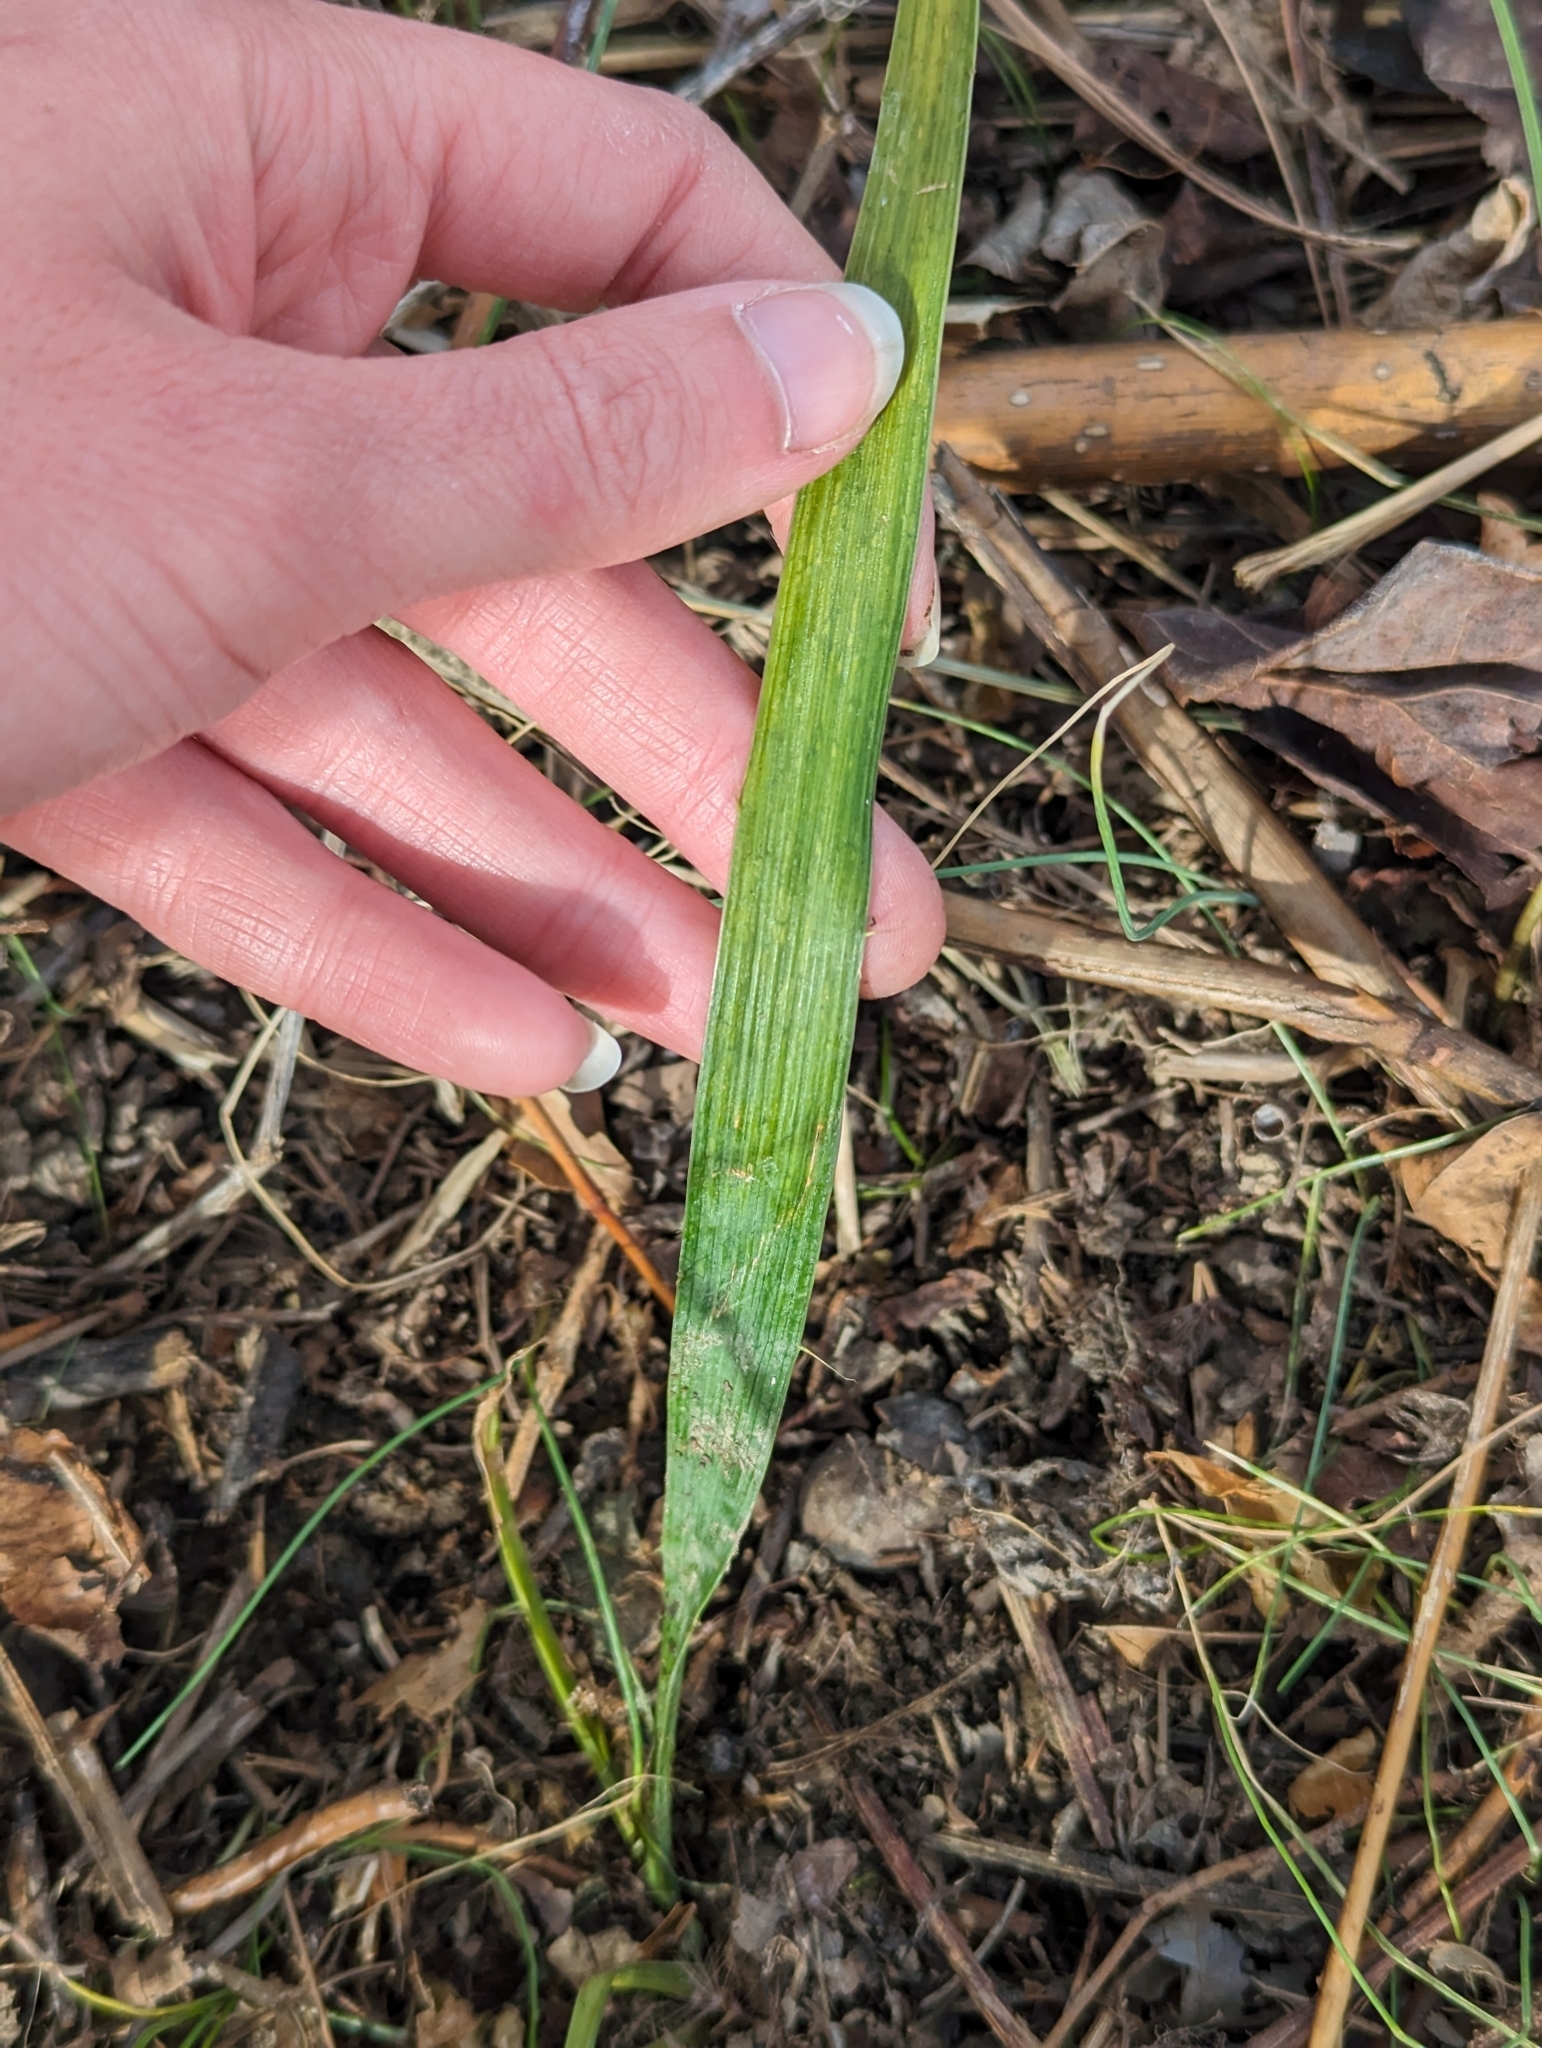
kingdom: Plantae
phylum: Tracheophyta
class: Magnoliopsida
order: Apiales
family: Apiaceae
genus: Eryngium
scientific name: Eryngium yuccifolium
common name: Button eryngo
